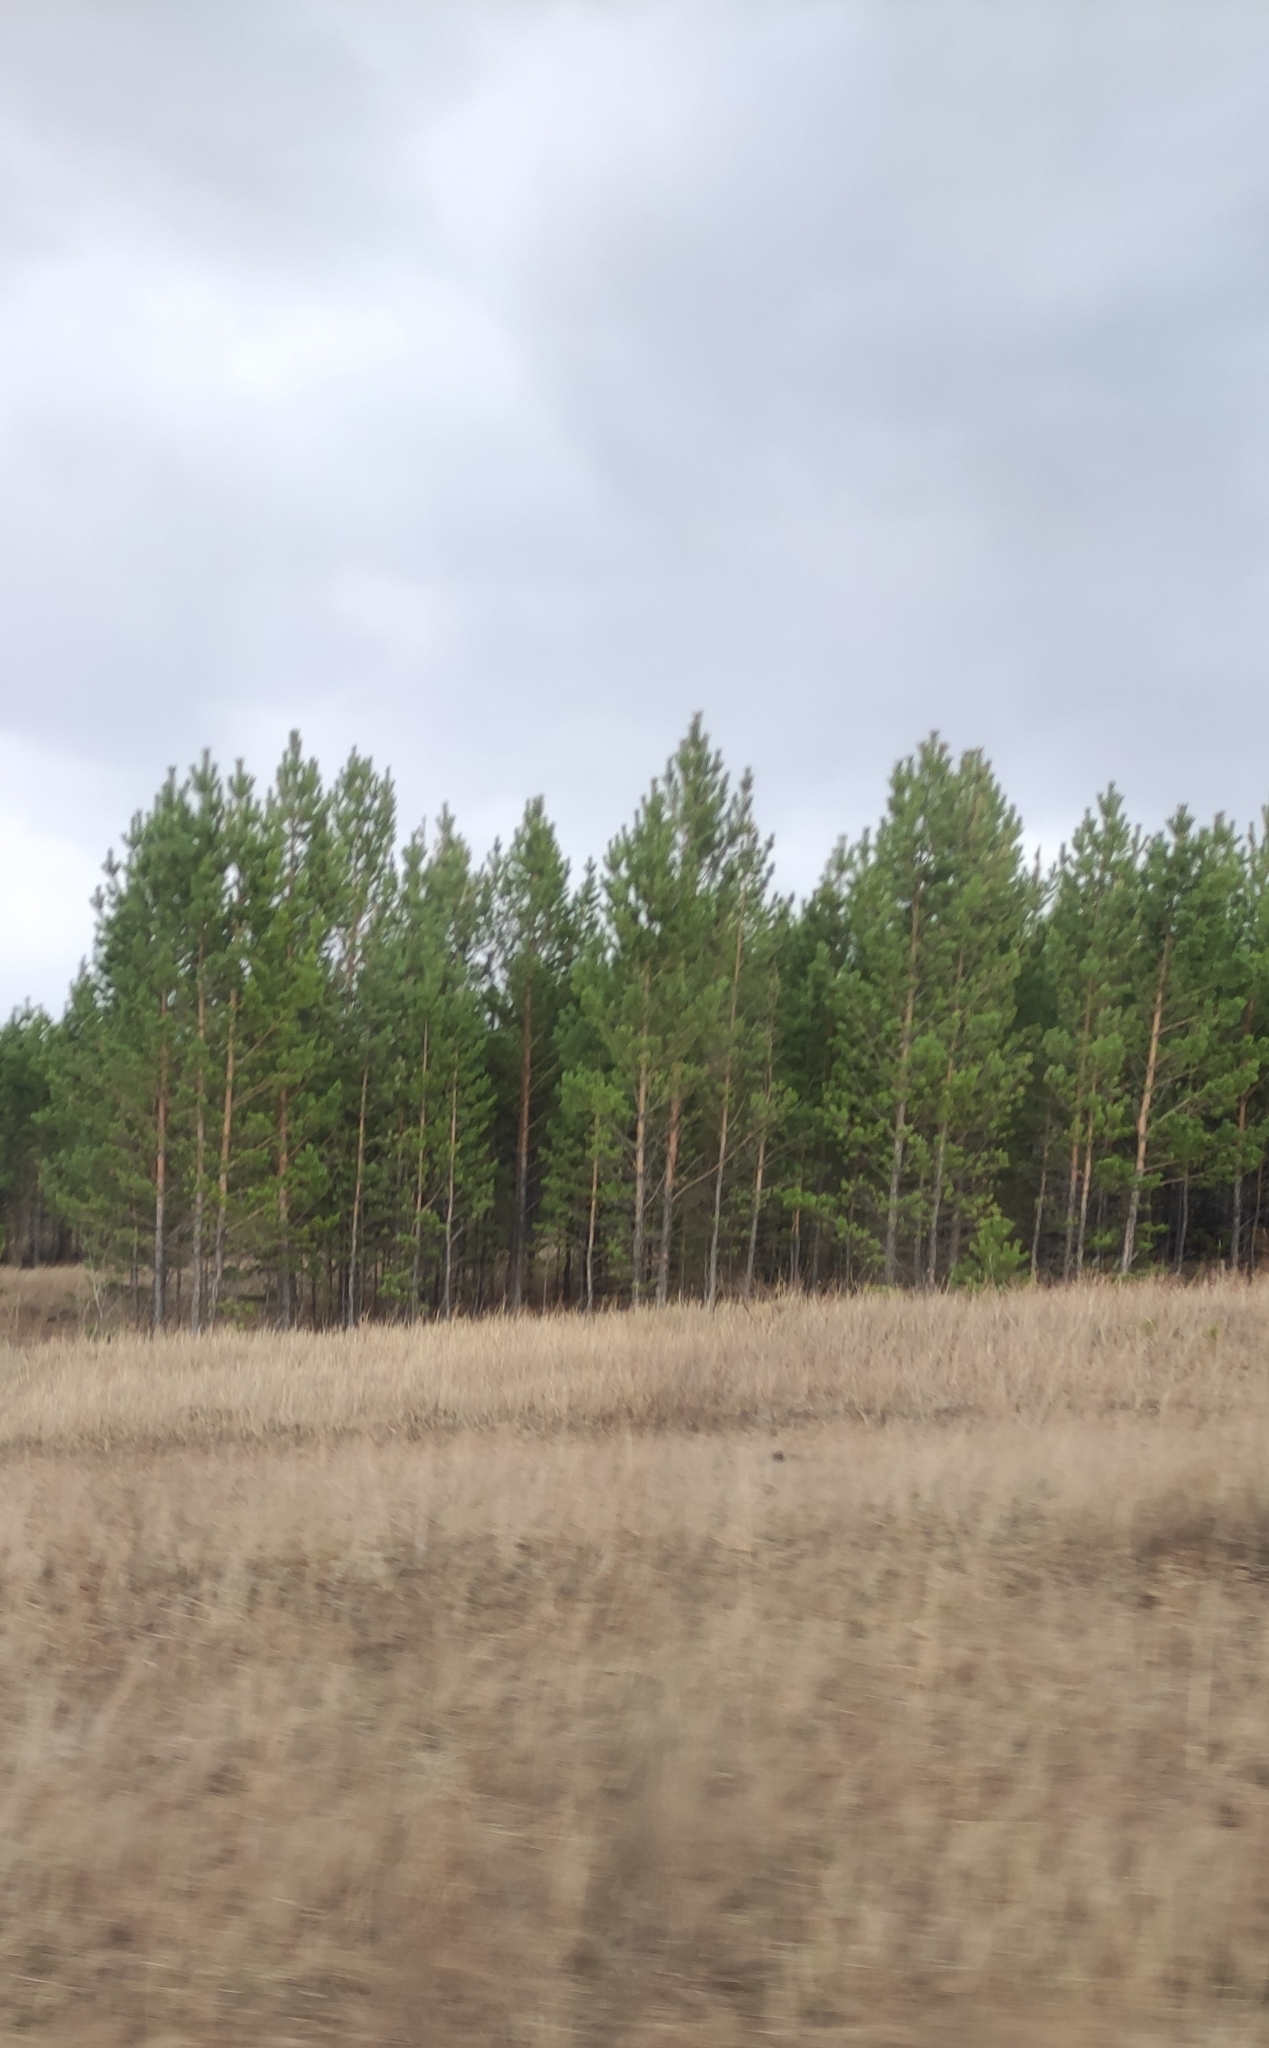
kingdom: Plantae
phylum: Tracheophyta
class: Pinopsida
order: Pinales
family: Pinaceae
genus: Pinus
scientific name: Pinus sylvestris
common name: Scots pine
